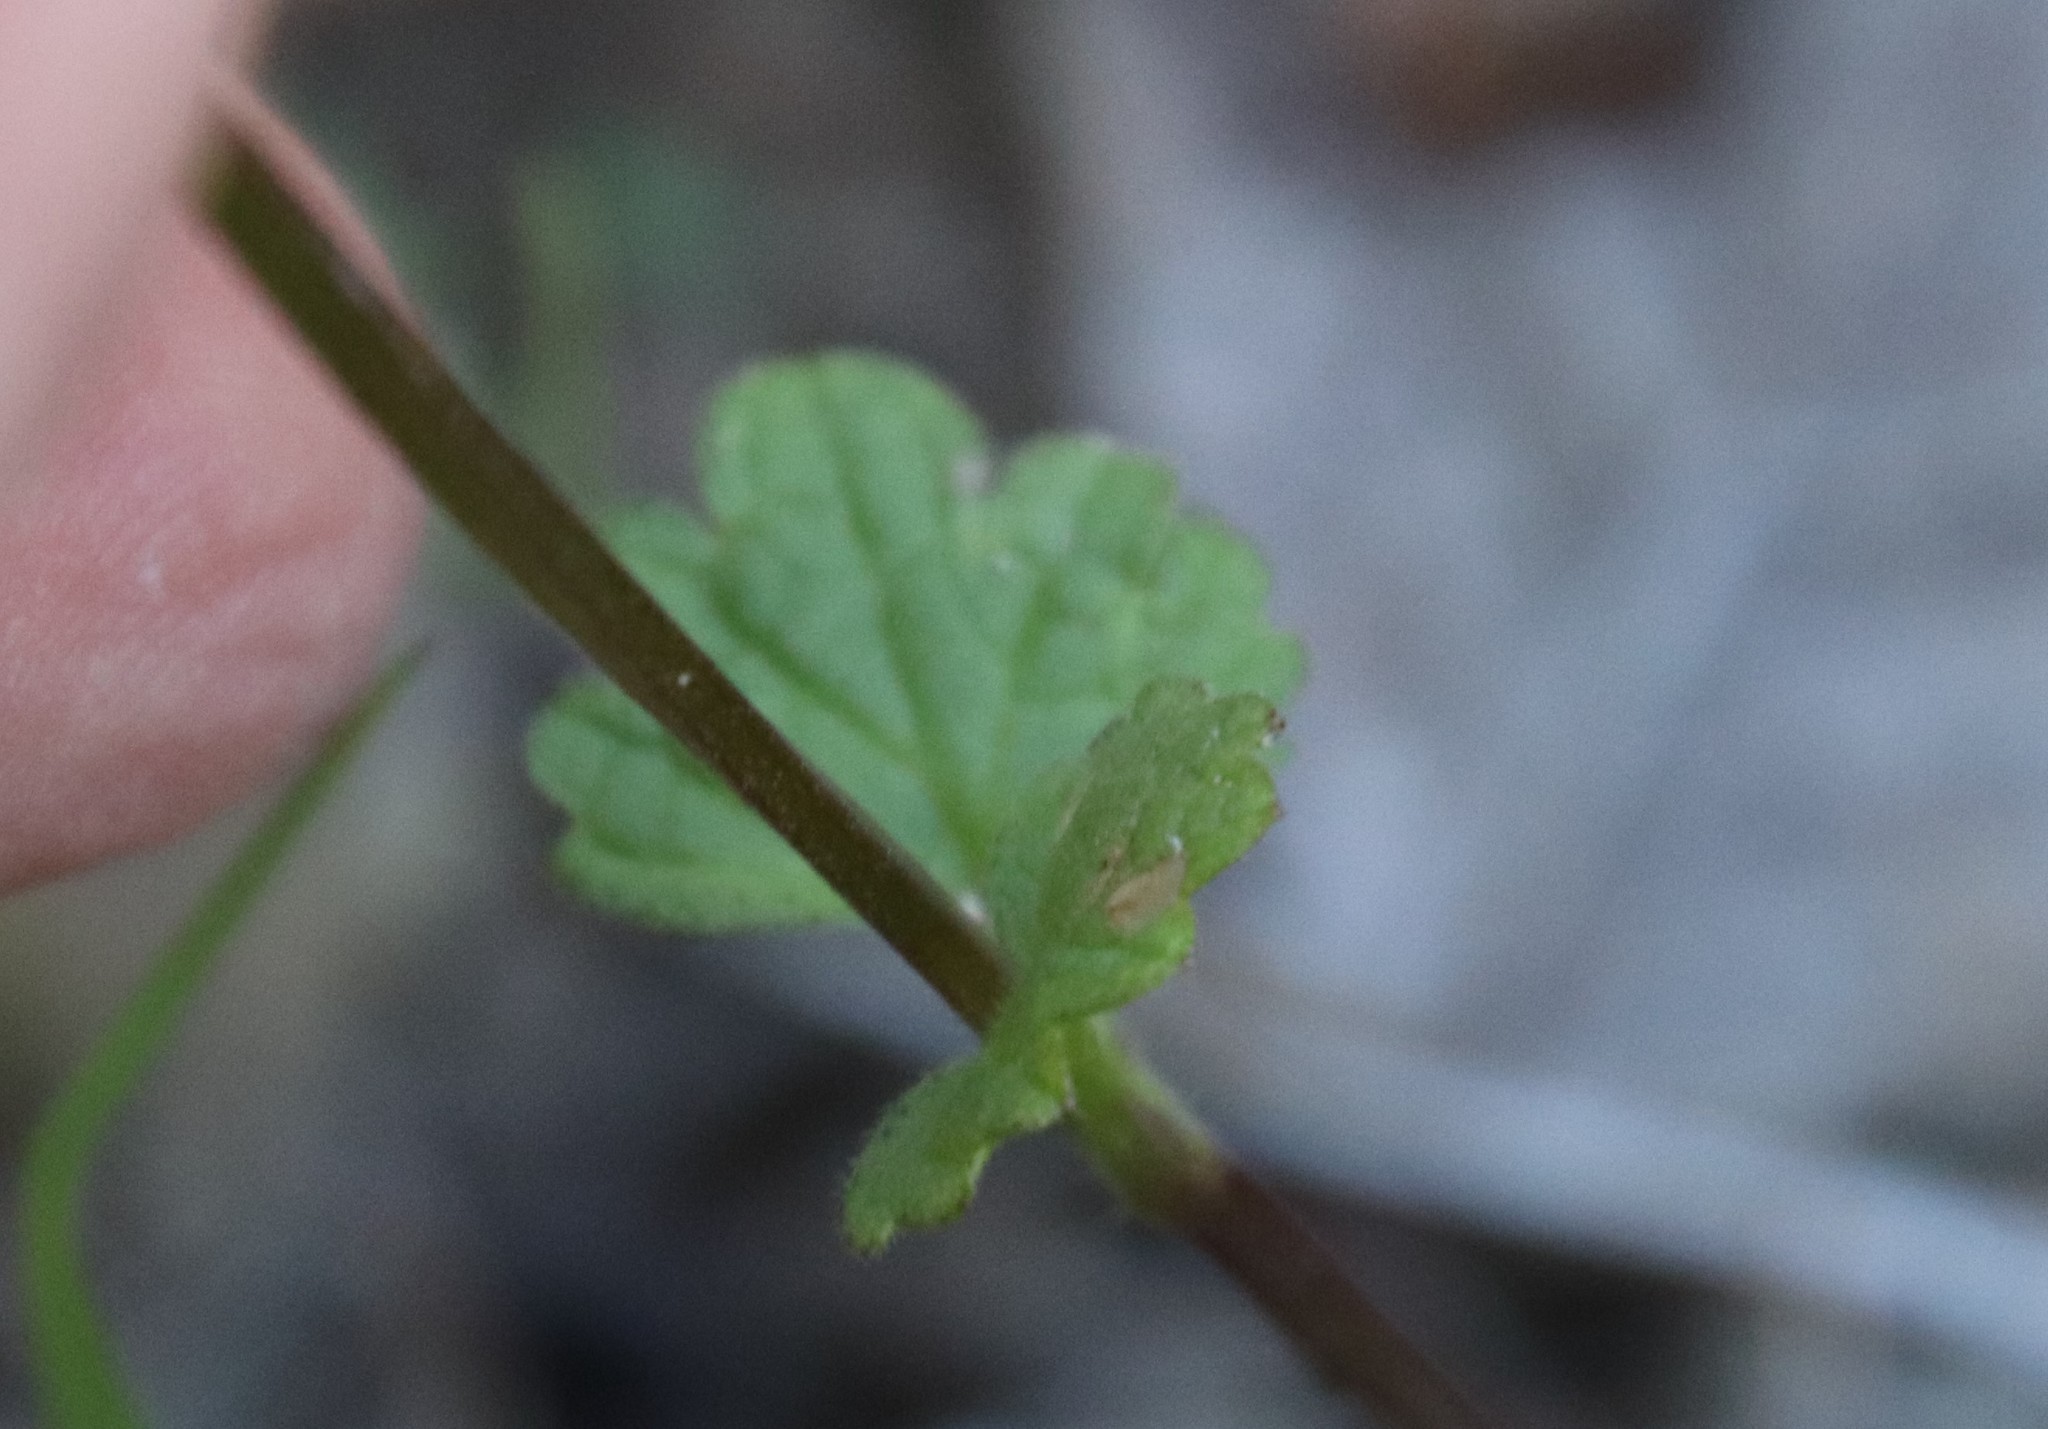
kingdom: Plantae
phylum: Tracheophyta
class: Magnoliopsida
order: Lamiales
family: Lamiaceae
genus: Lamium
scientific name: Lamium amplexicaule
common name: Henbit dead-nettle
